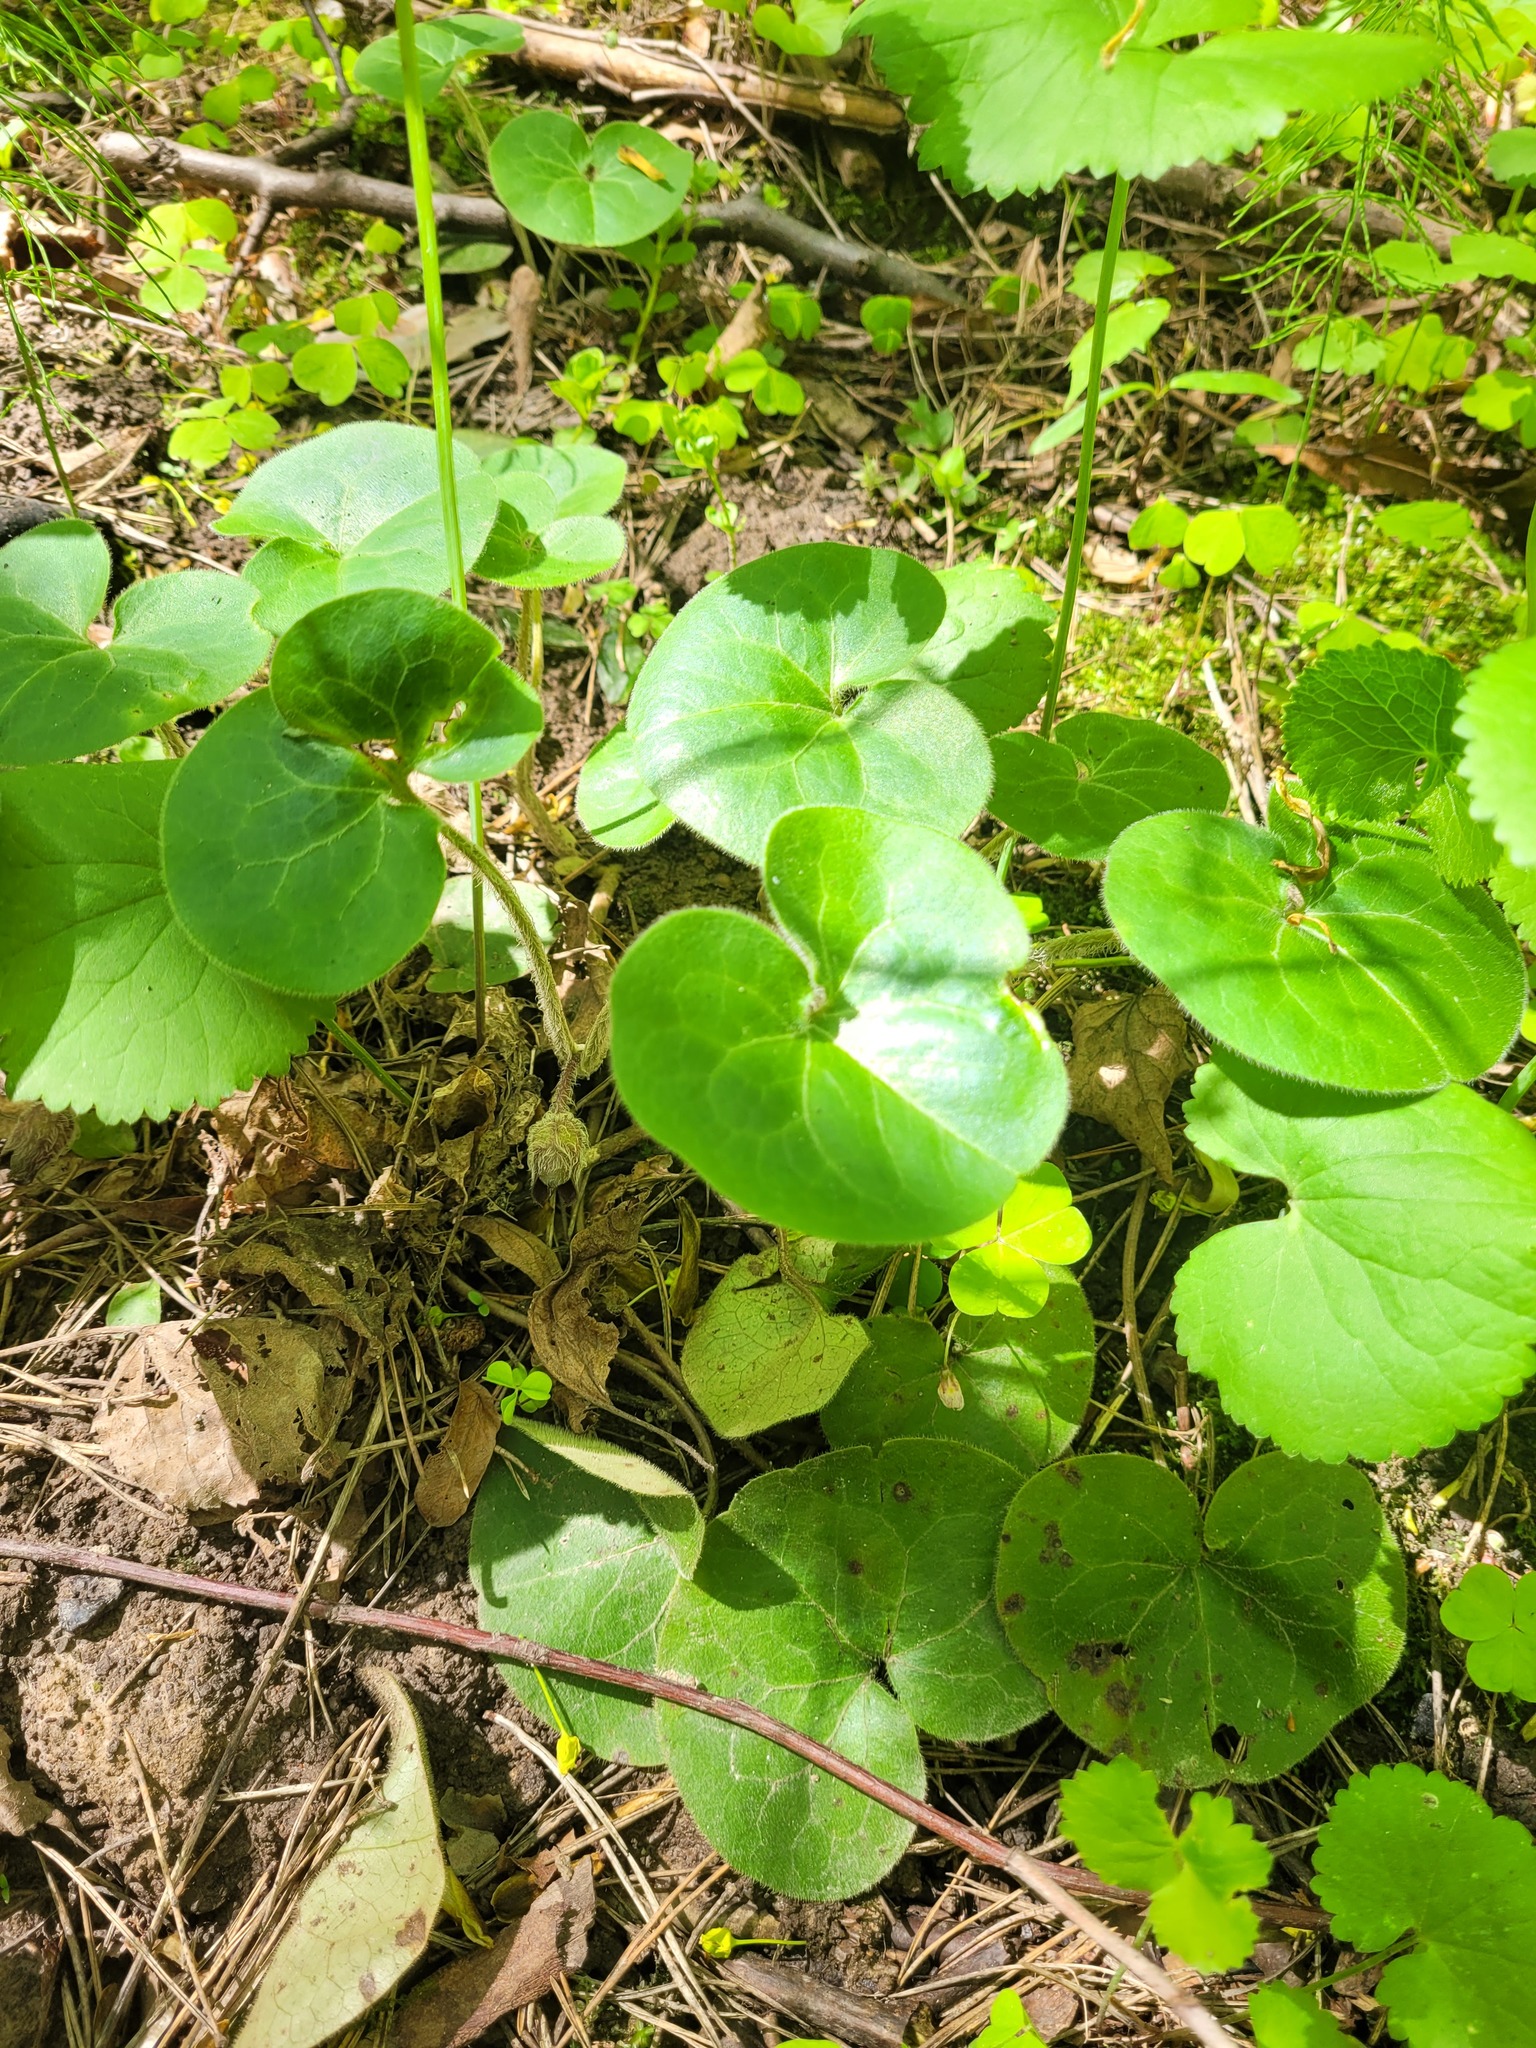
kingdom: Plantae
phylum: Tracheophyta
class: Magnoliopsida
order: Piperales
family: Aristolochiaceae
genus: Asarum
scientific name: Asarum europaeum
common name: Asarabacca
